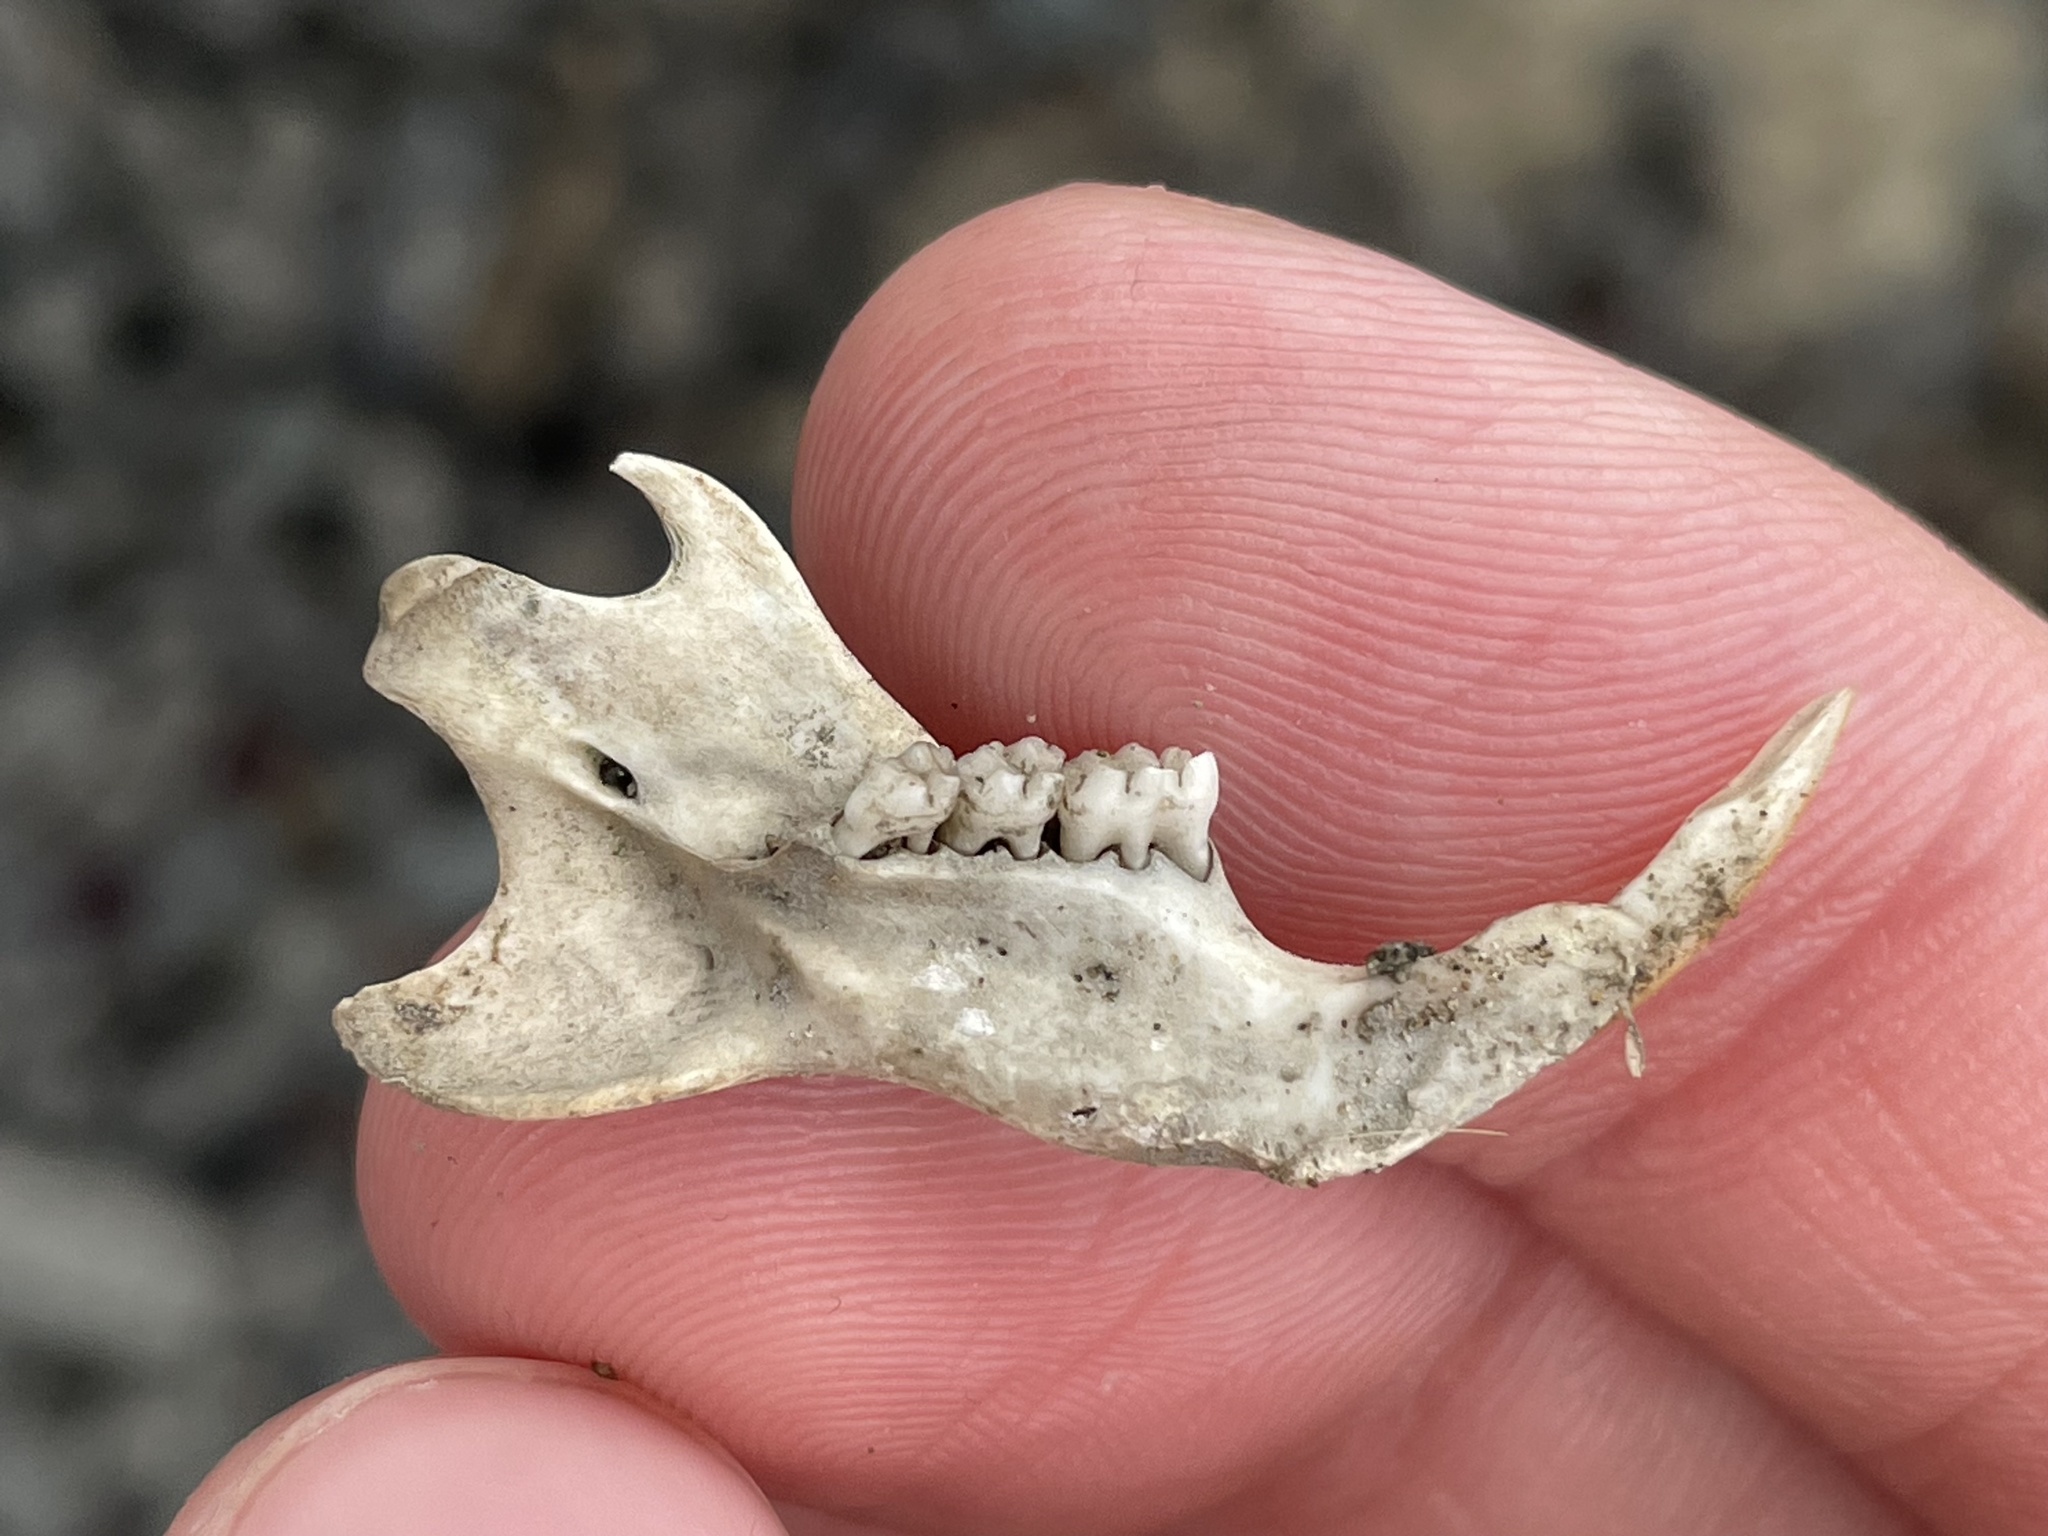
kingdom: Animalia
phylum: Chordata
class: Mammalia
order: Rodentia
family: Muridae
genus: Rattus
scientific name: Rattus norvegicus
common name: Brown rat
